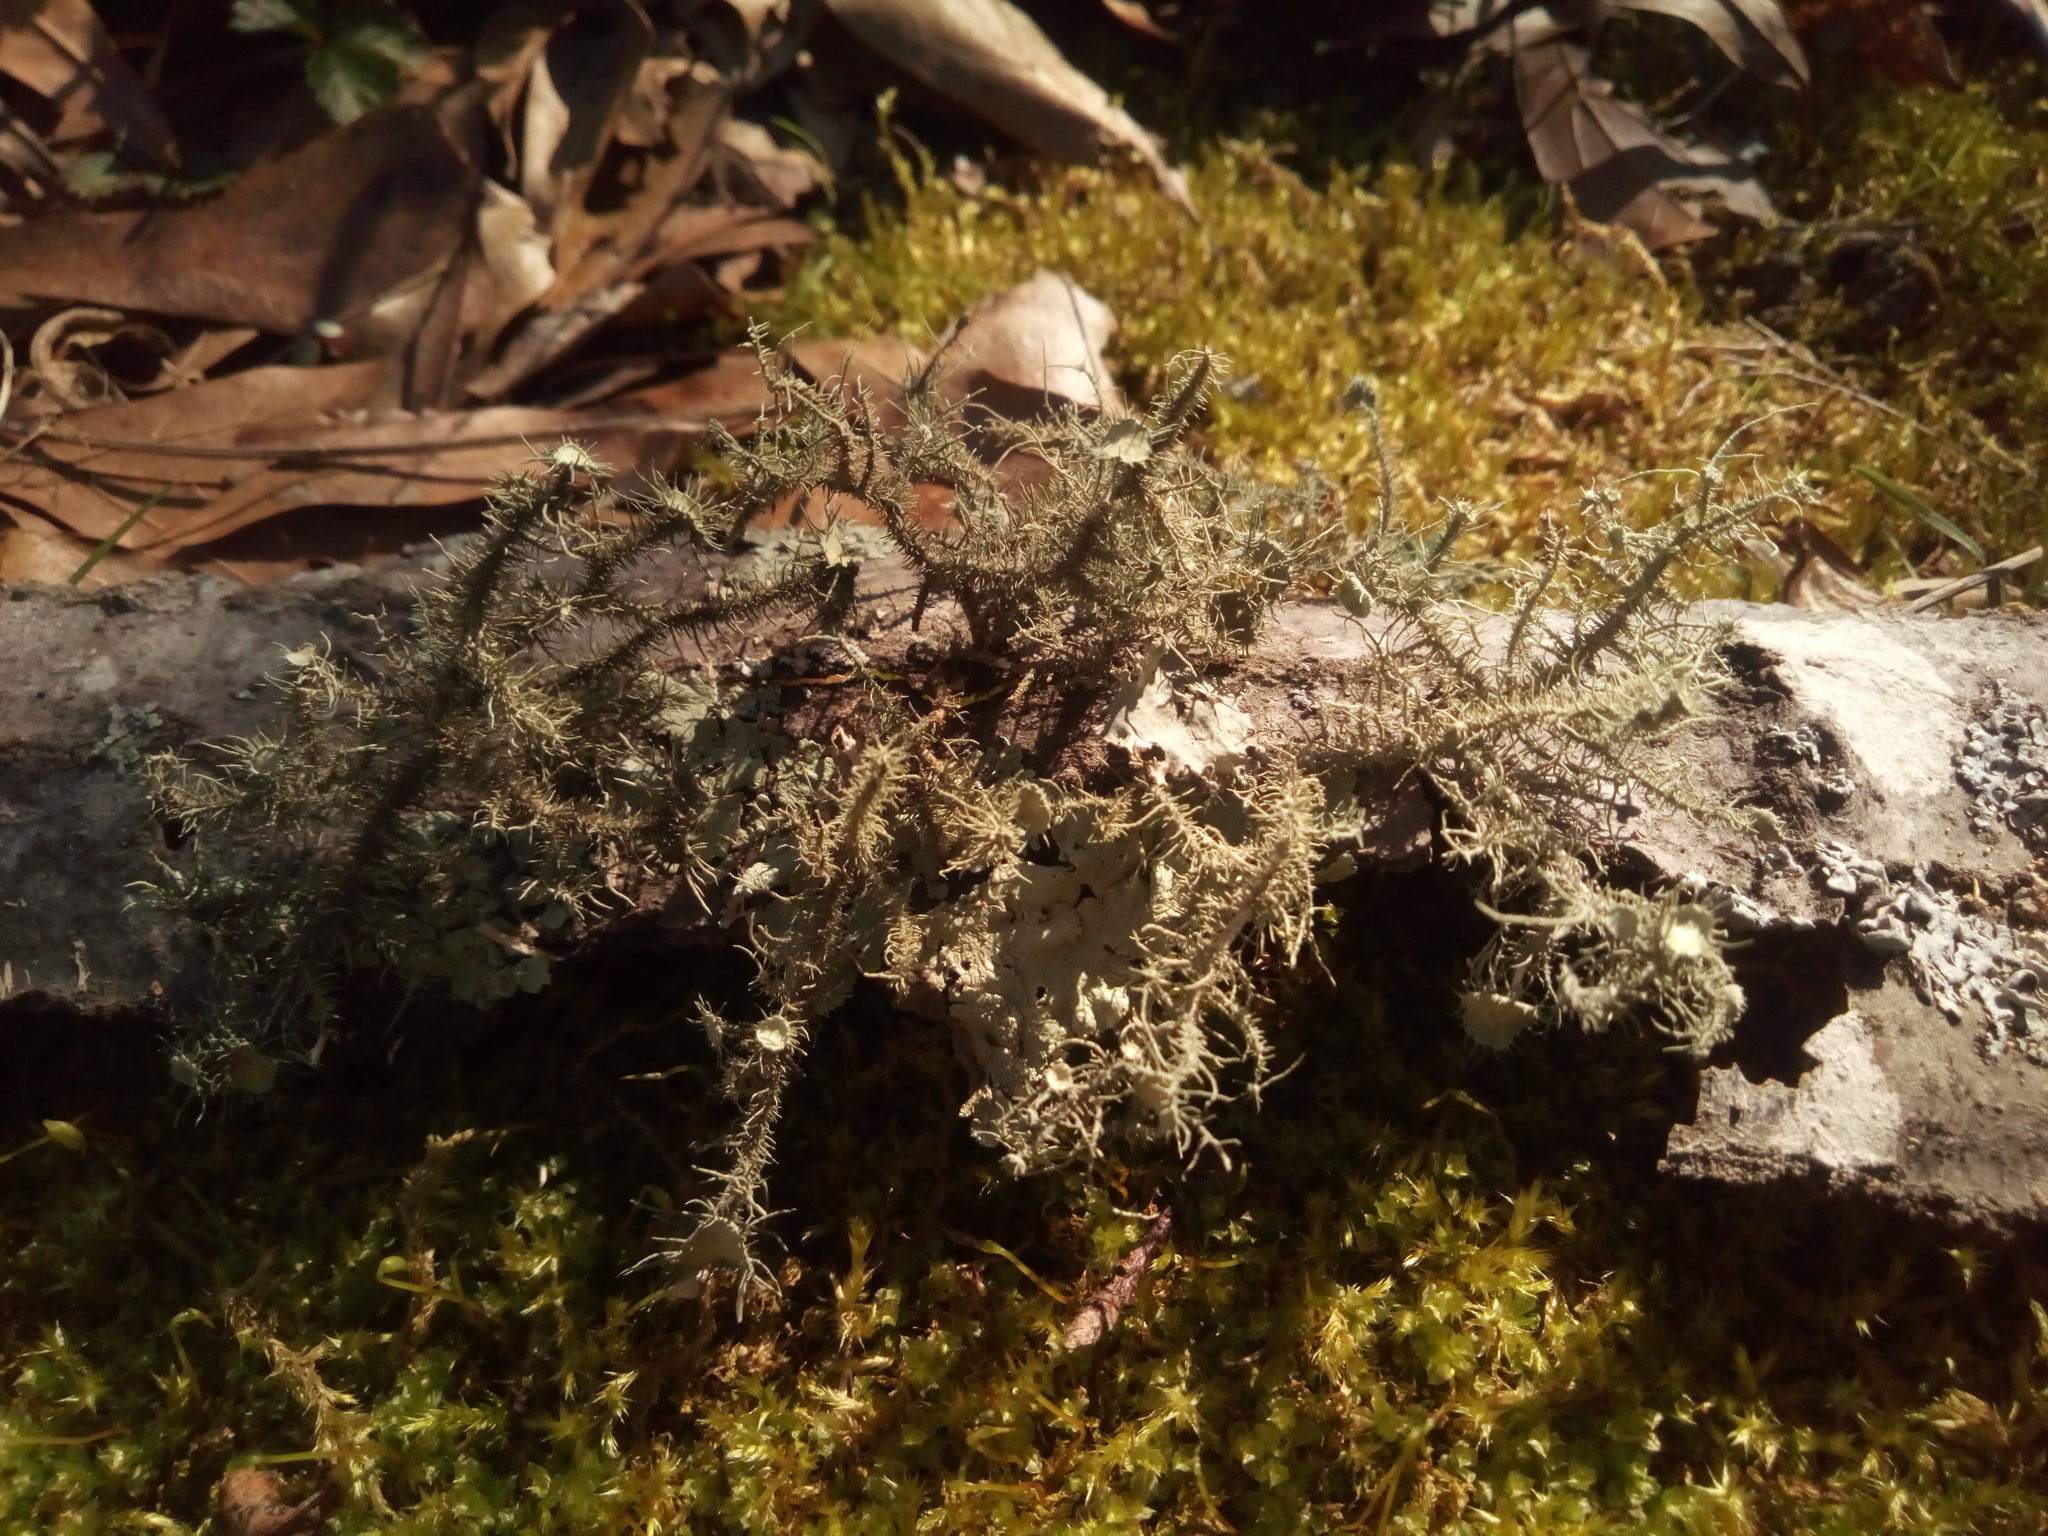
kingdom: Fungi
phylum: Ascomycota
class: Lecanoromycetes
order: Lecanorales
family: Parmeliaceae
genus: Usnea
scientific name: Usnea strigosa
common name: Bushy beard lichen
